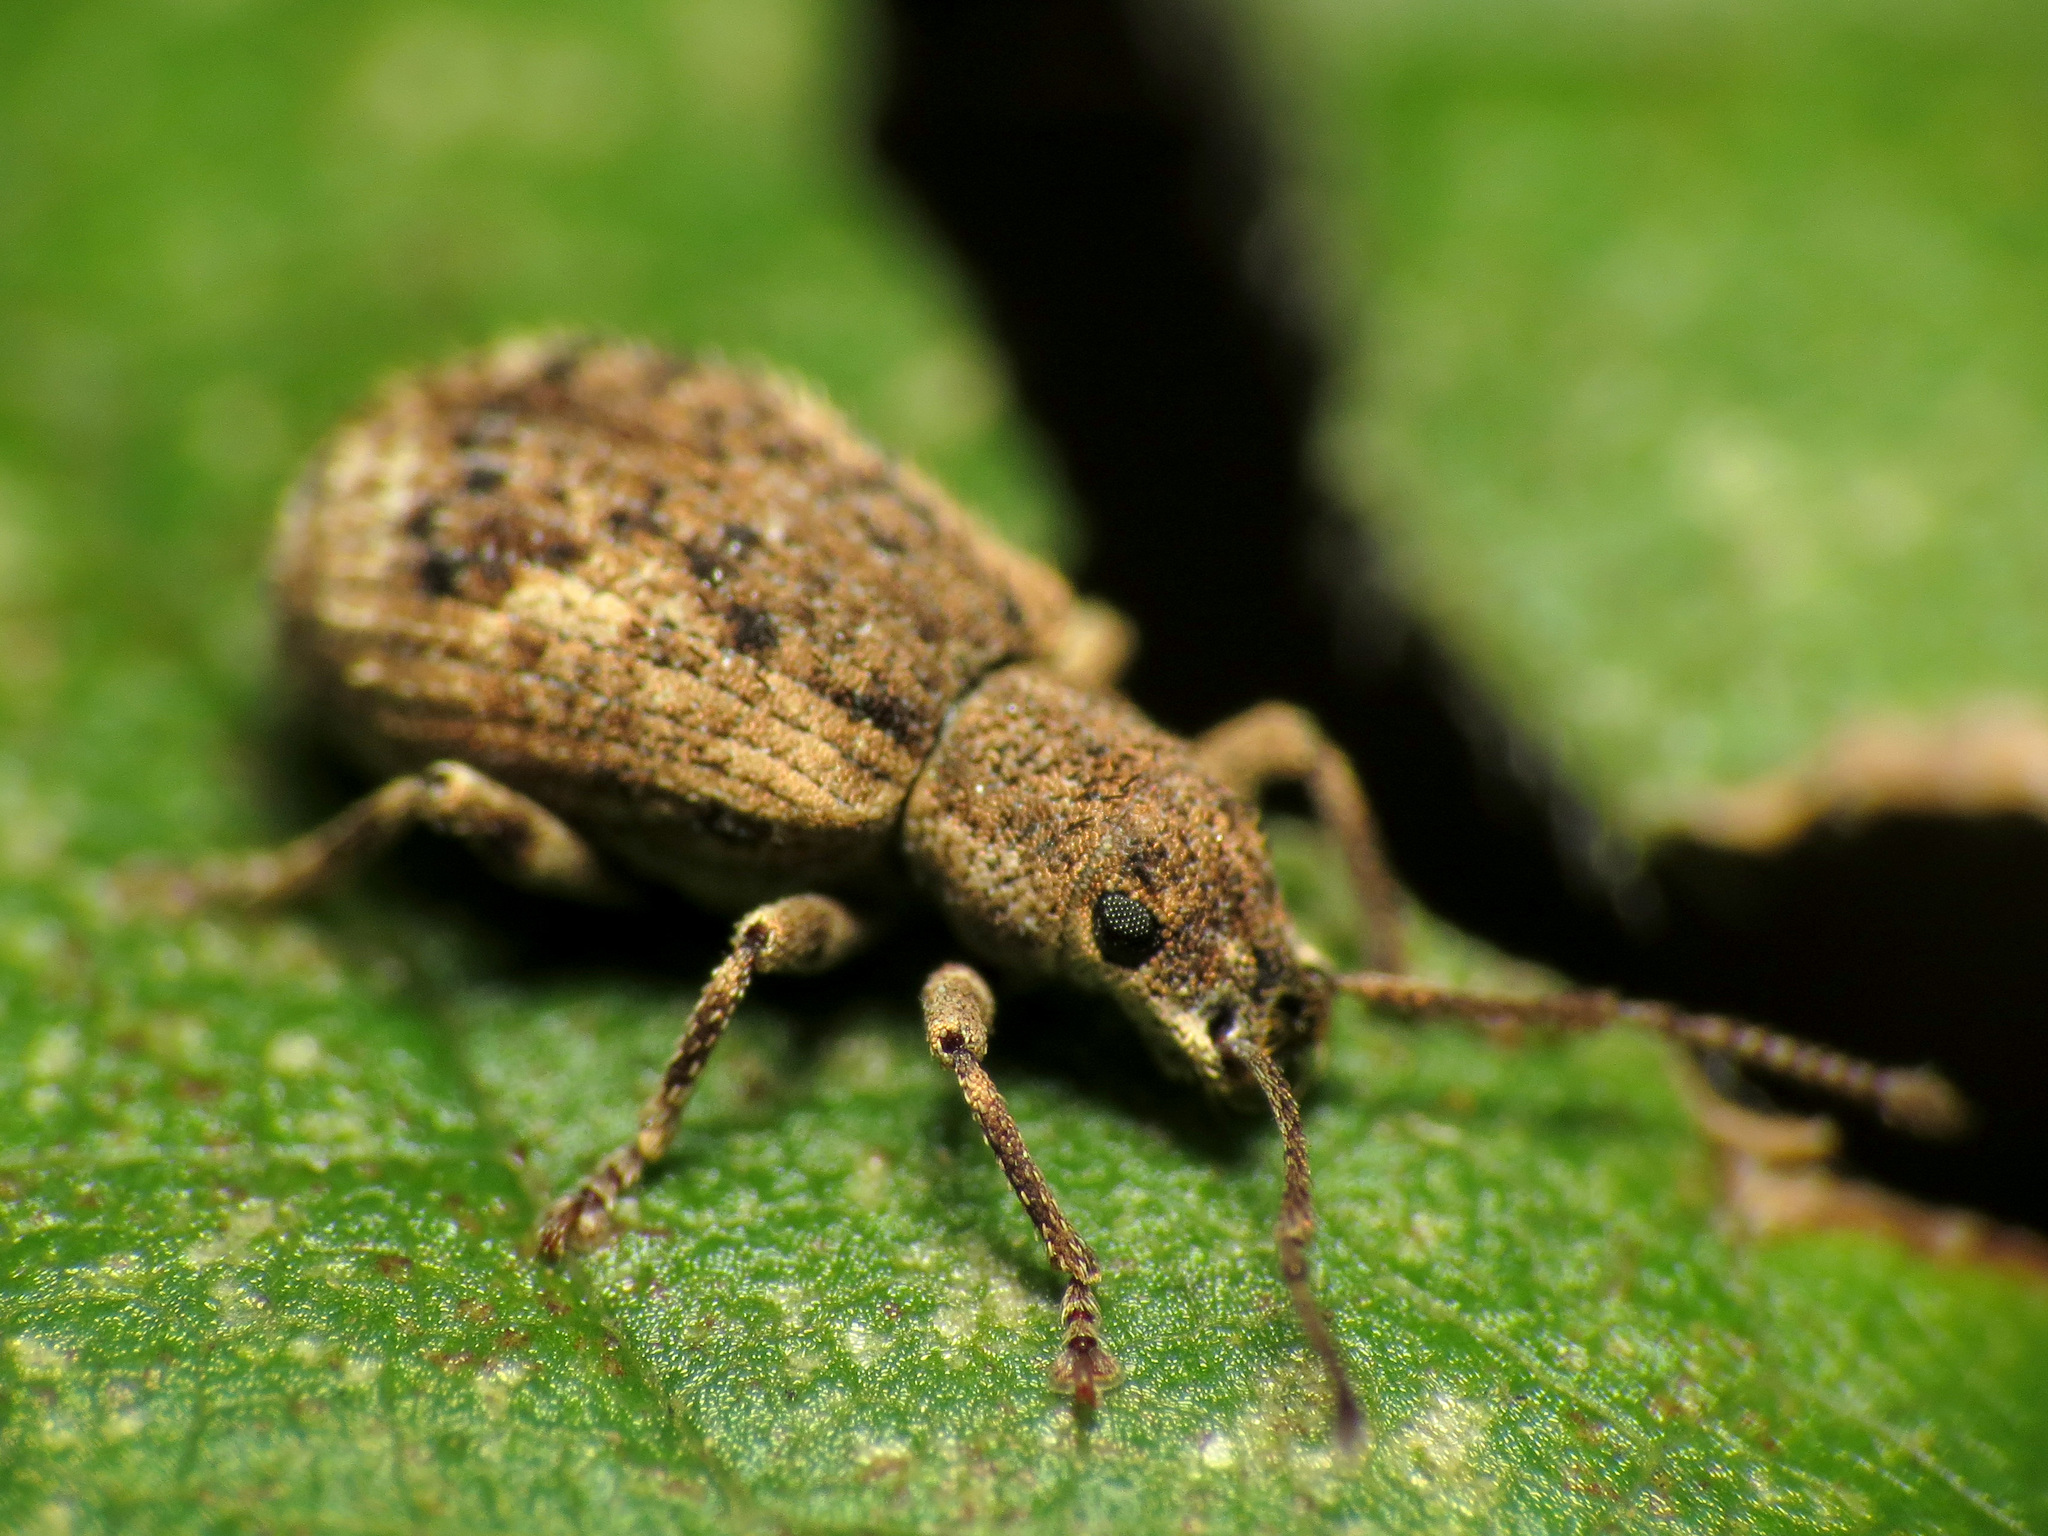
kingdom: Animalia
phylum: Arthropoda
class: Insecta
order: Coleoptera
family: Curculionidae
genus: Pseudoedophrys
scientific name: Pseudoedophrys hilleri
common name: Weevil
